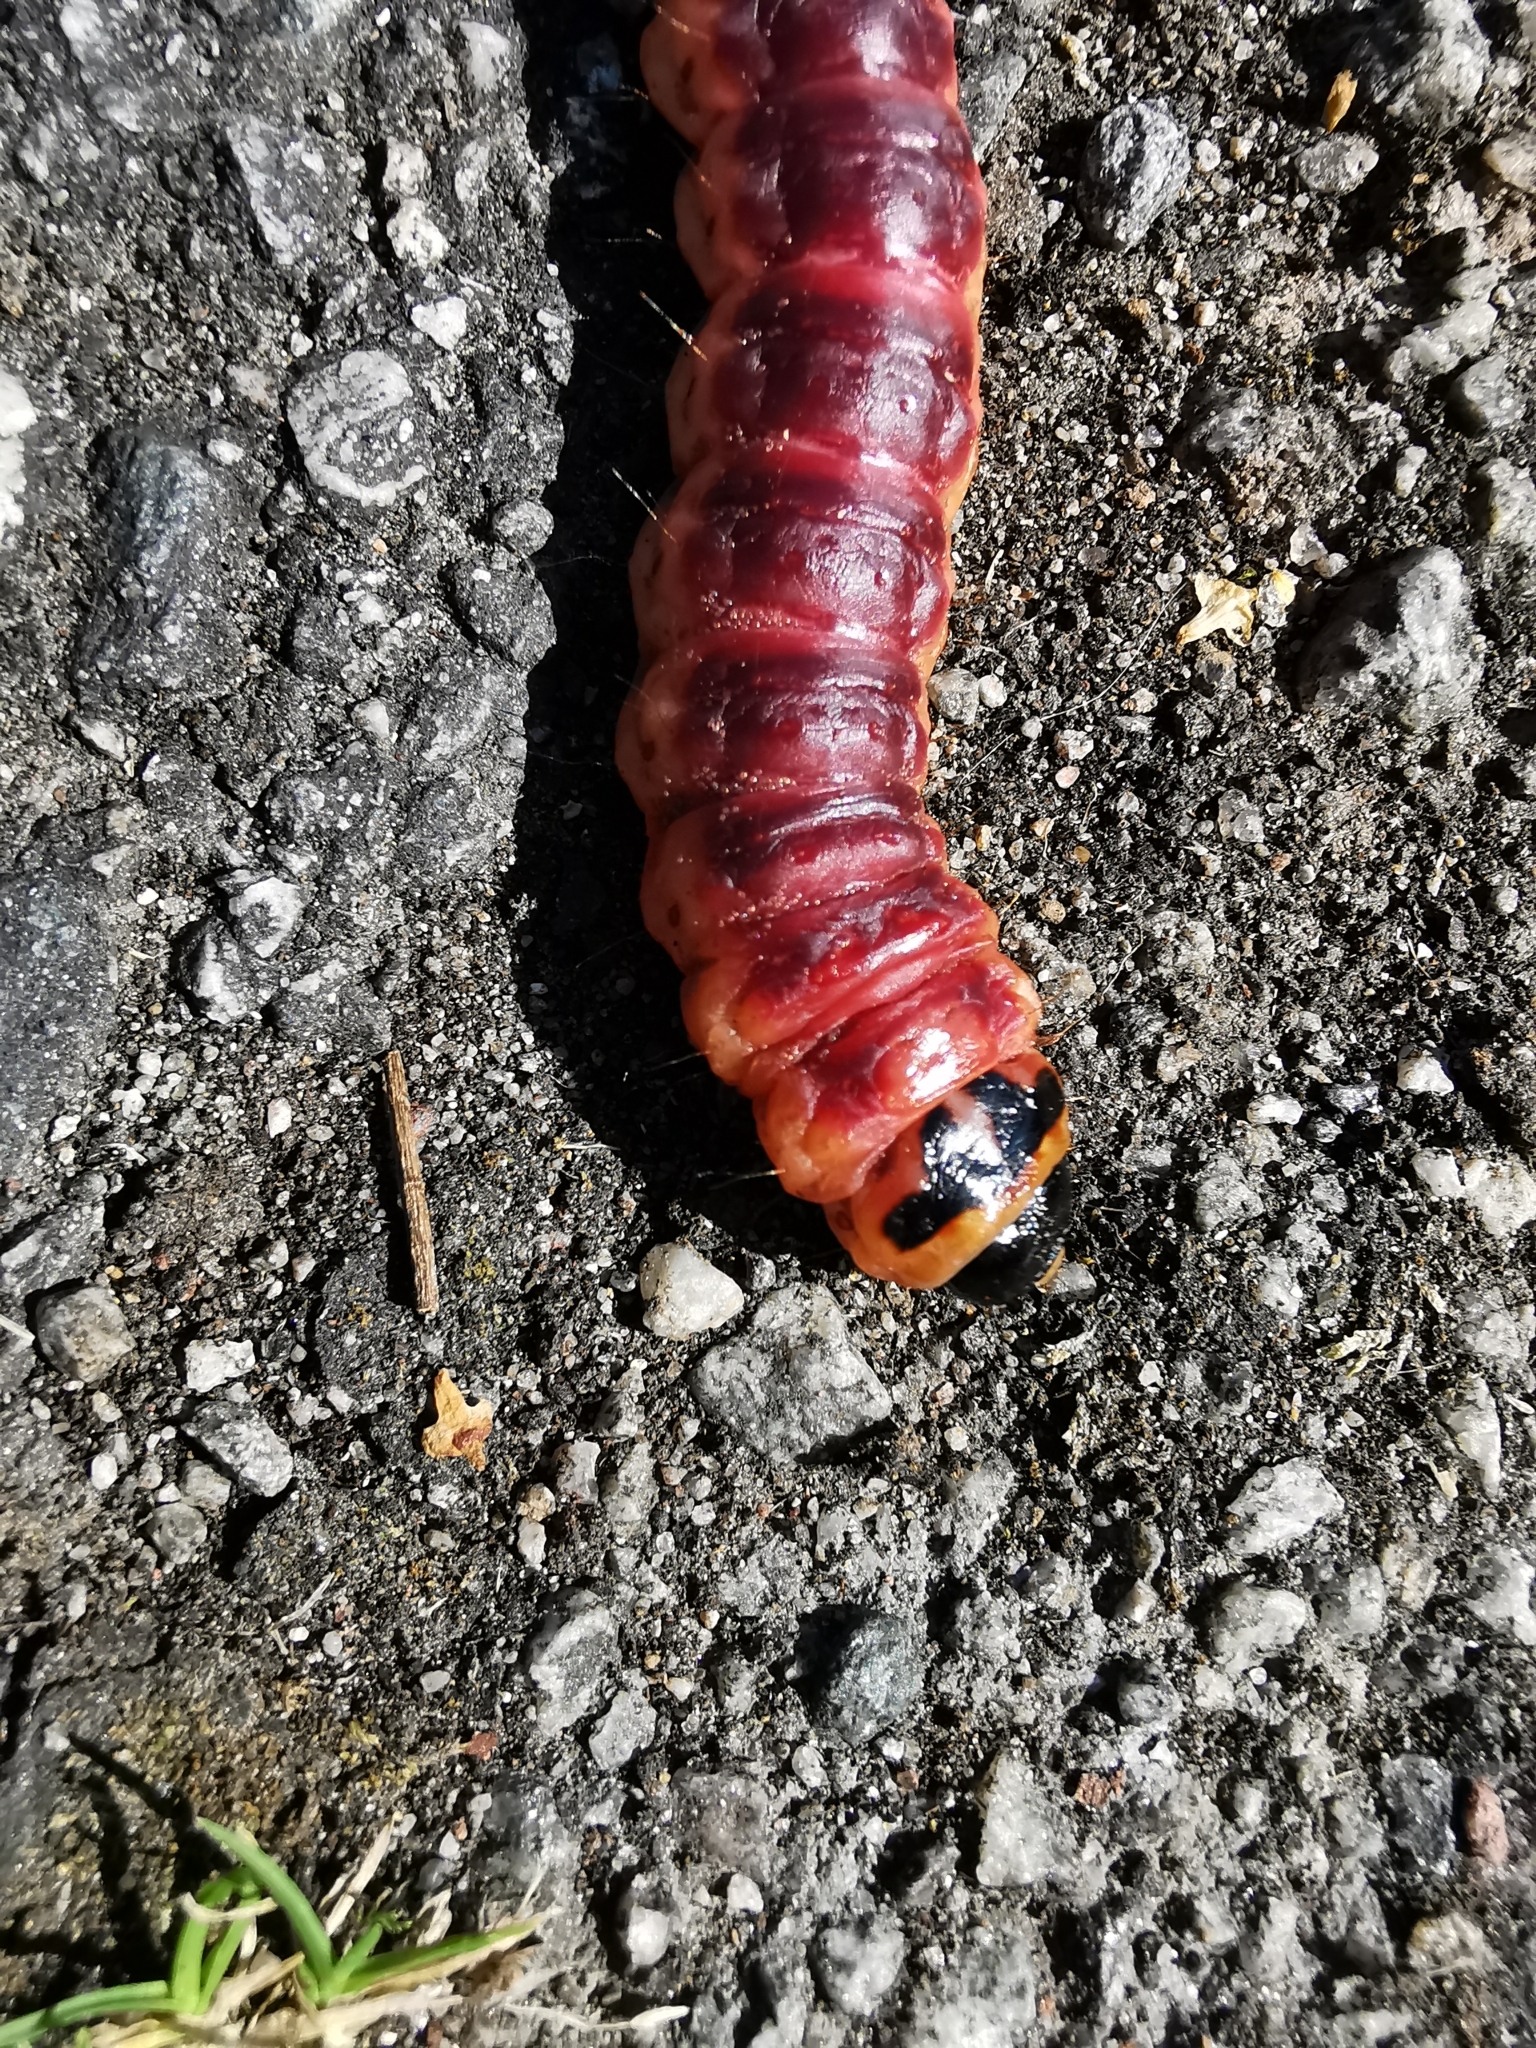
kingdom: Animalia
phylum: Arthropoda
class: Insecta
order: Lepidoptera
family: Cossidae
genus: Cossus
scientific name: Cossus cossus
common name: Goat moth
